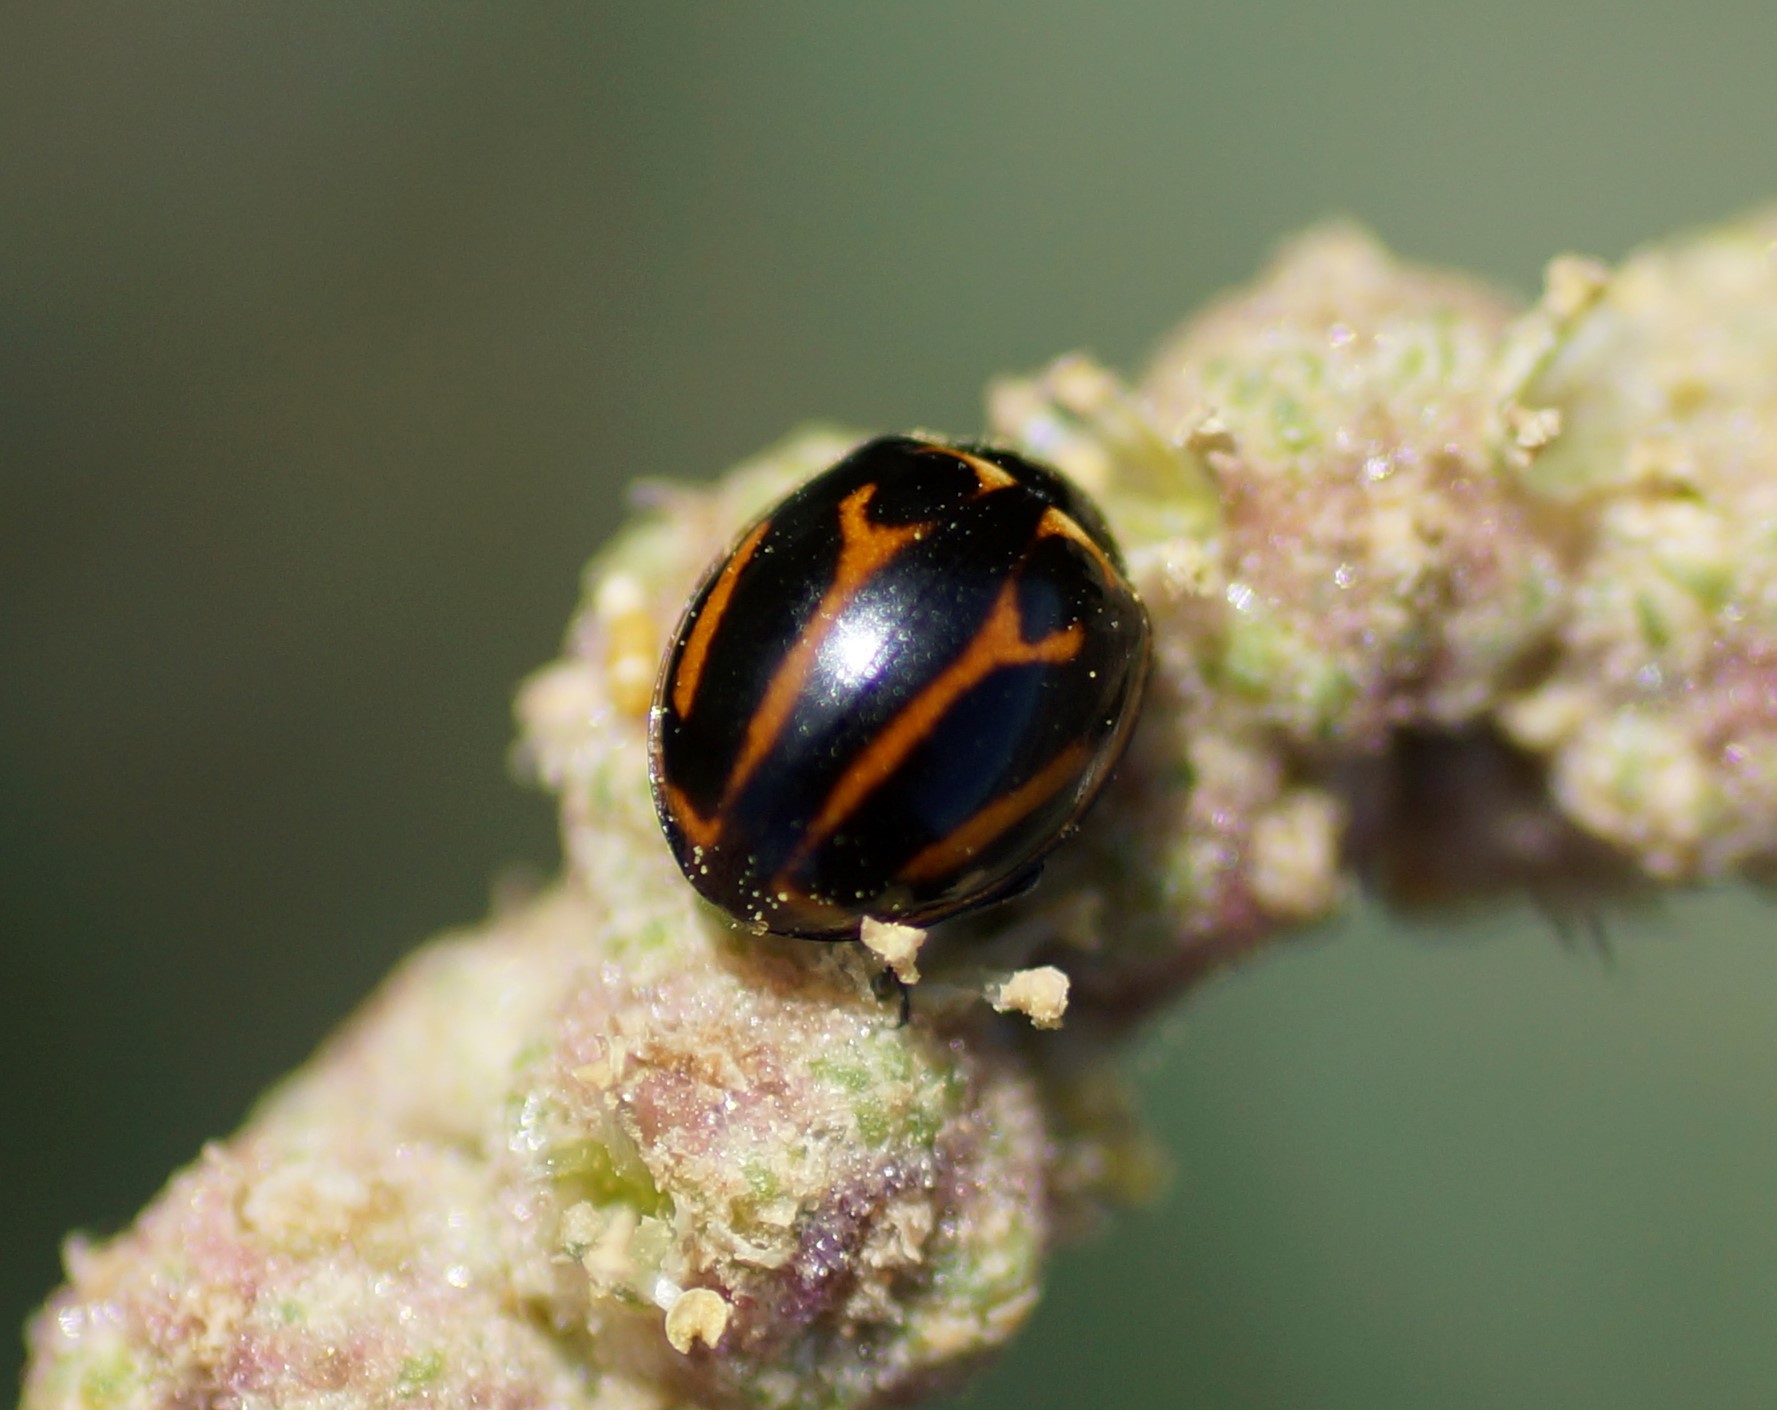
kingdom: Animalia
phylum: Arthropoda
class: Insecta
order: Coleoptera
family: Coccinellidae
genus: Micraspis
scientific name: Micraspis
